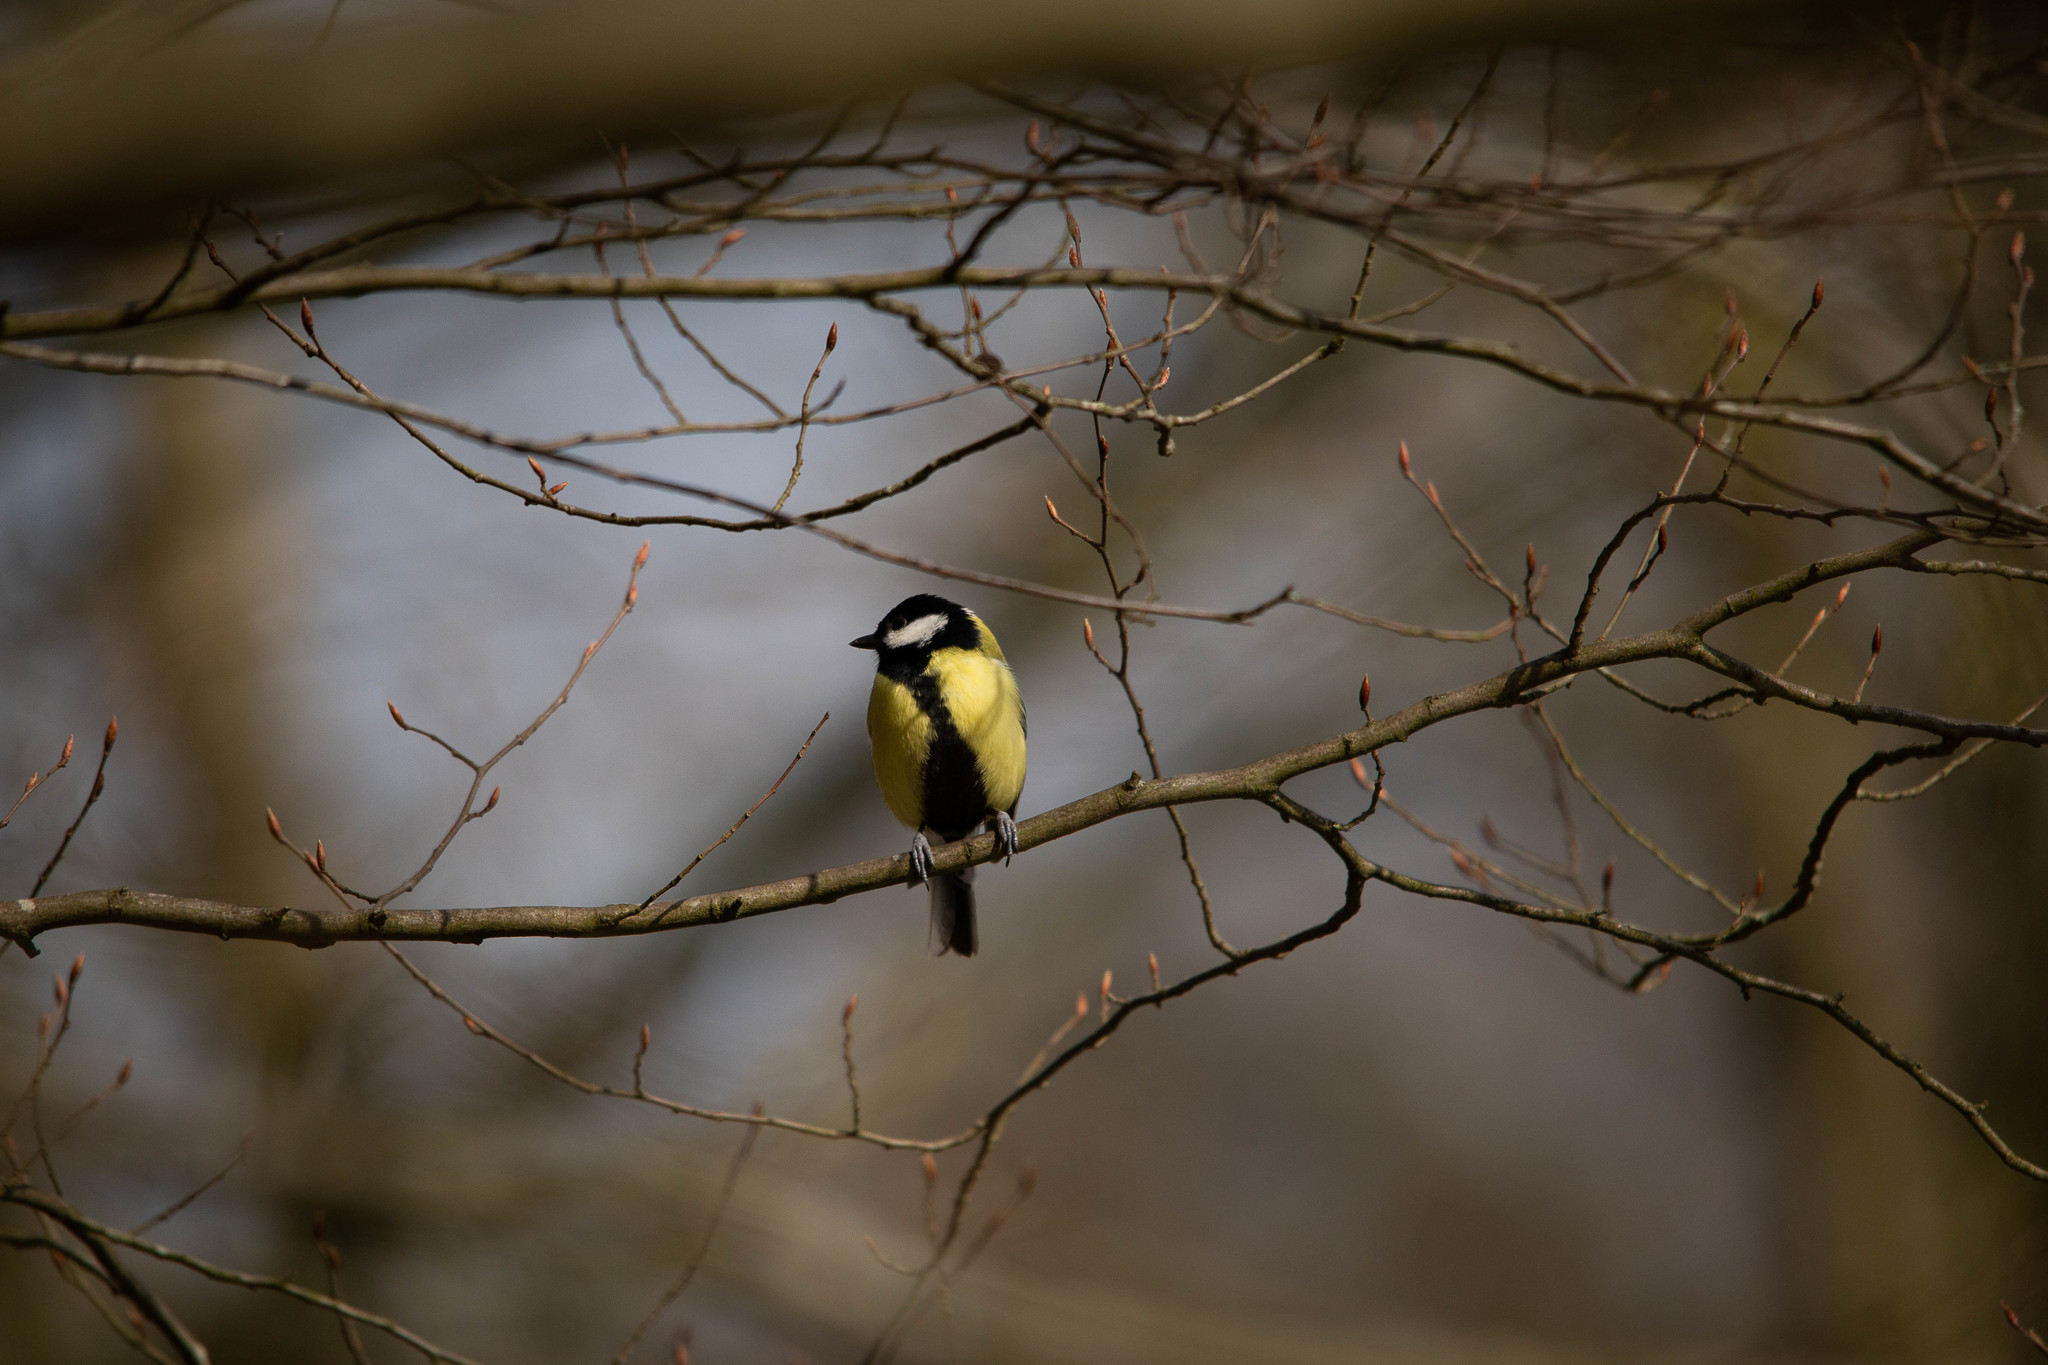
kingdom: Animalia
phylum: Chordata
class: Aves
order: Passeriformes
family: Paridae
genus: Parus
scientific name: Parus major
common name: Great tit
